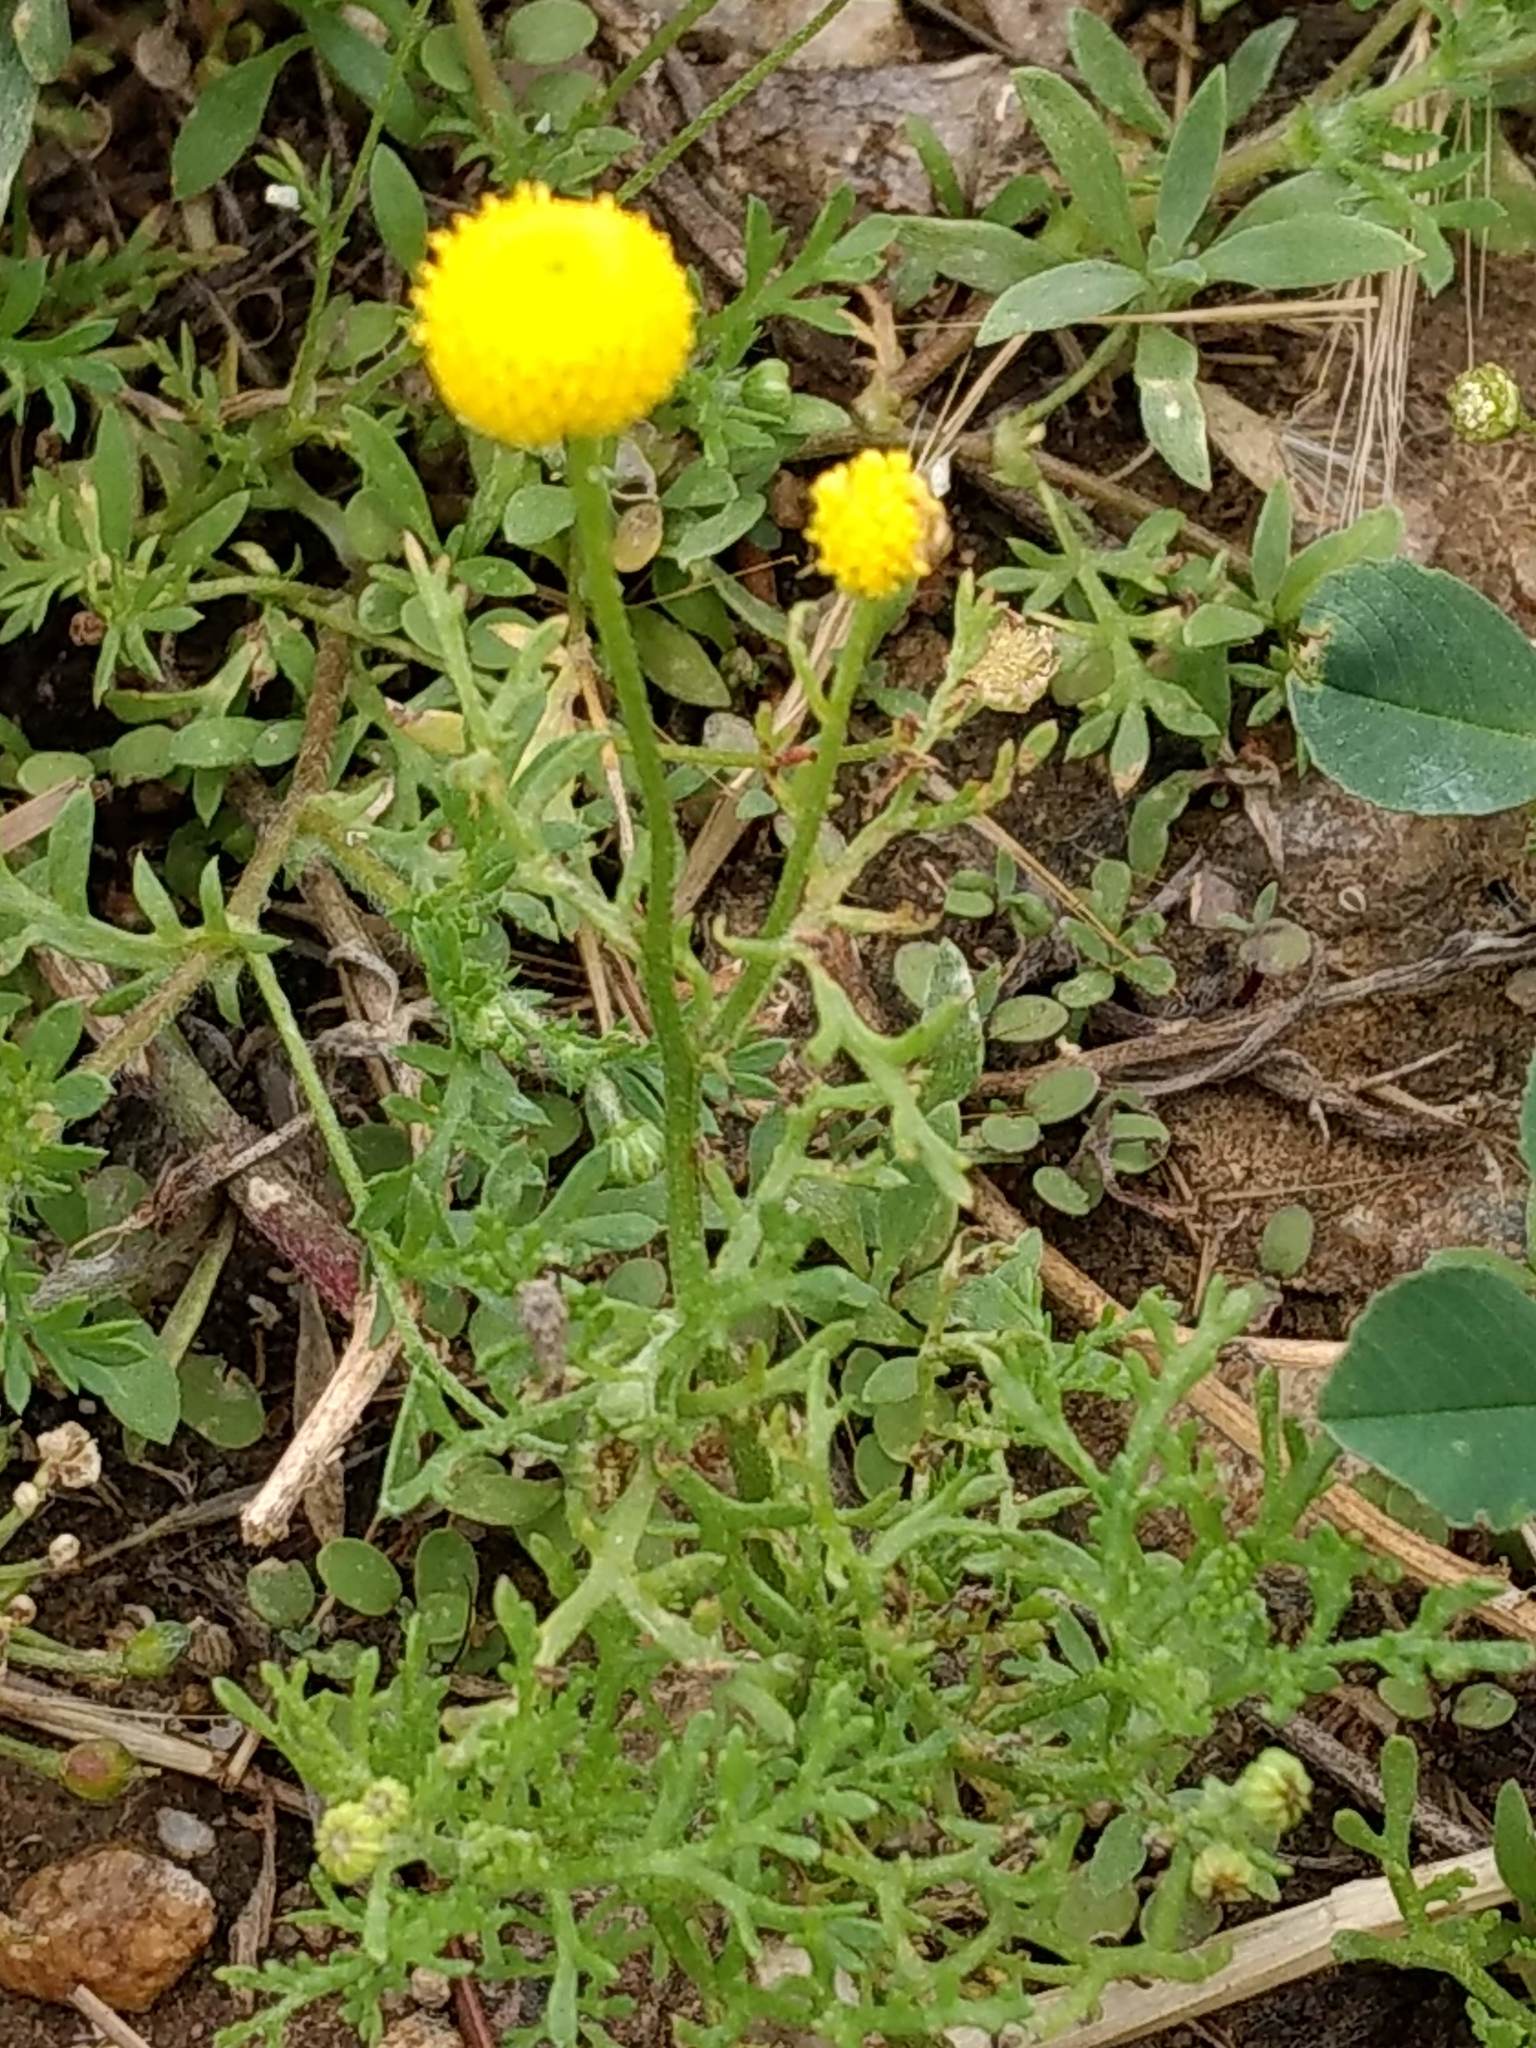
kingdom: Plantae
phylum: Tracheophyta
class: Magnoliopsida
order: Asterales
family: Asteraceae
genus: Oncosiphon
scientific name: Oncosiphon pilulifer
